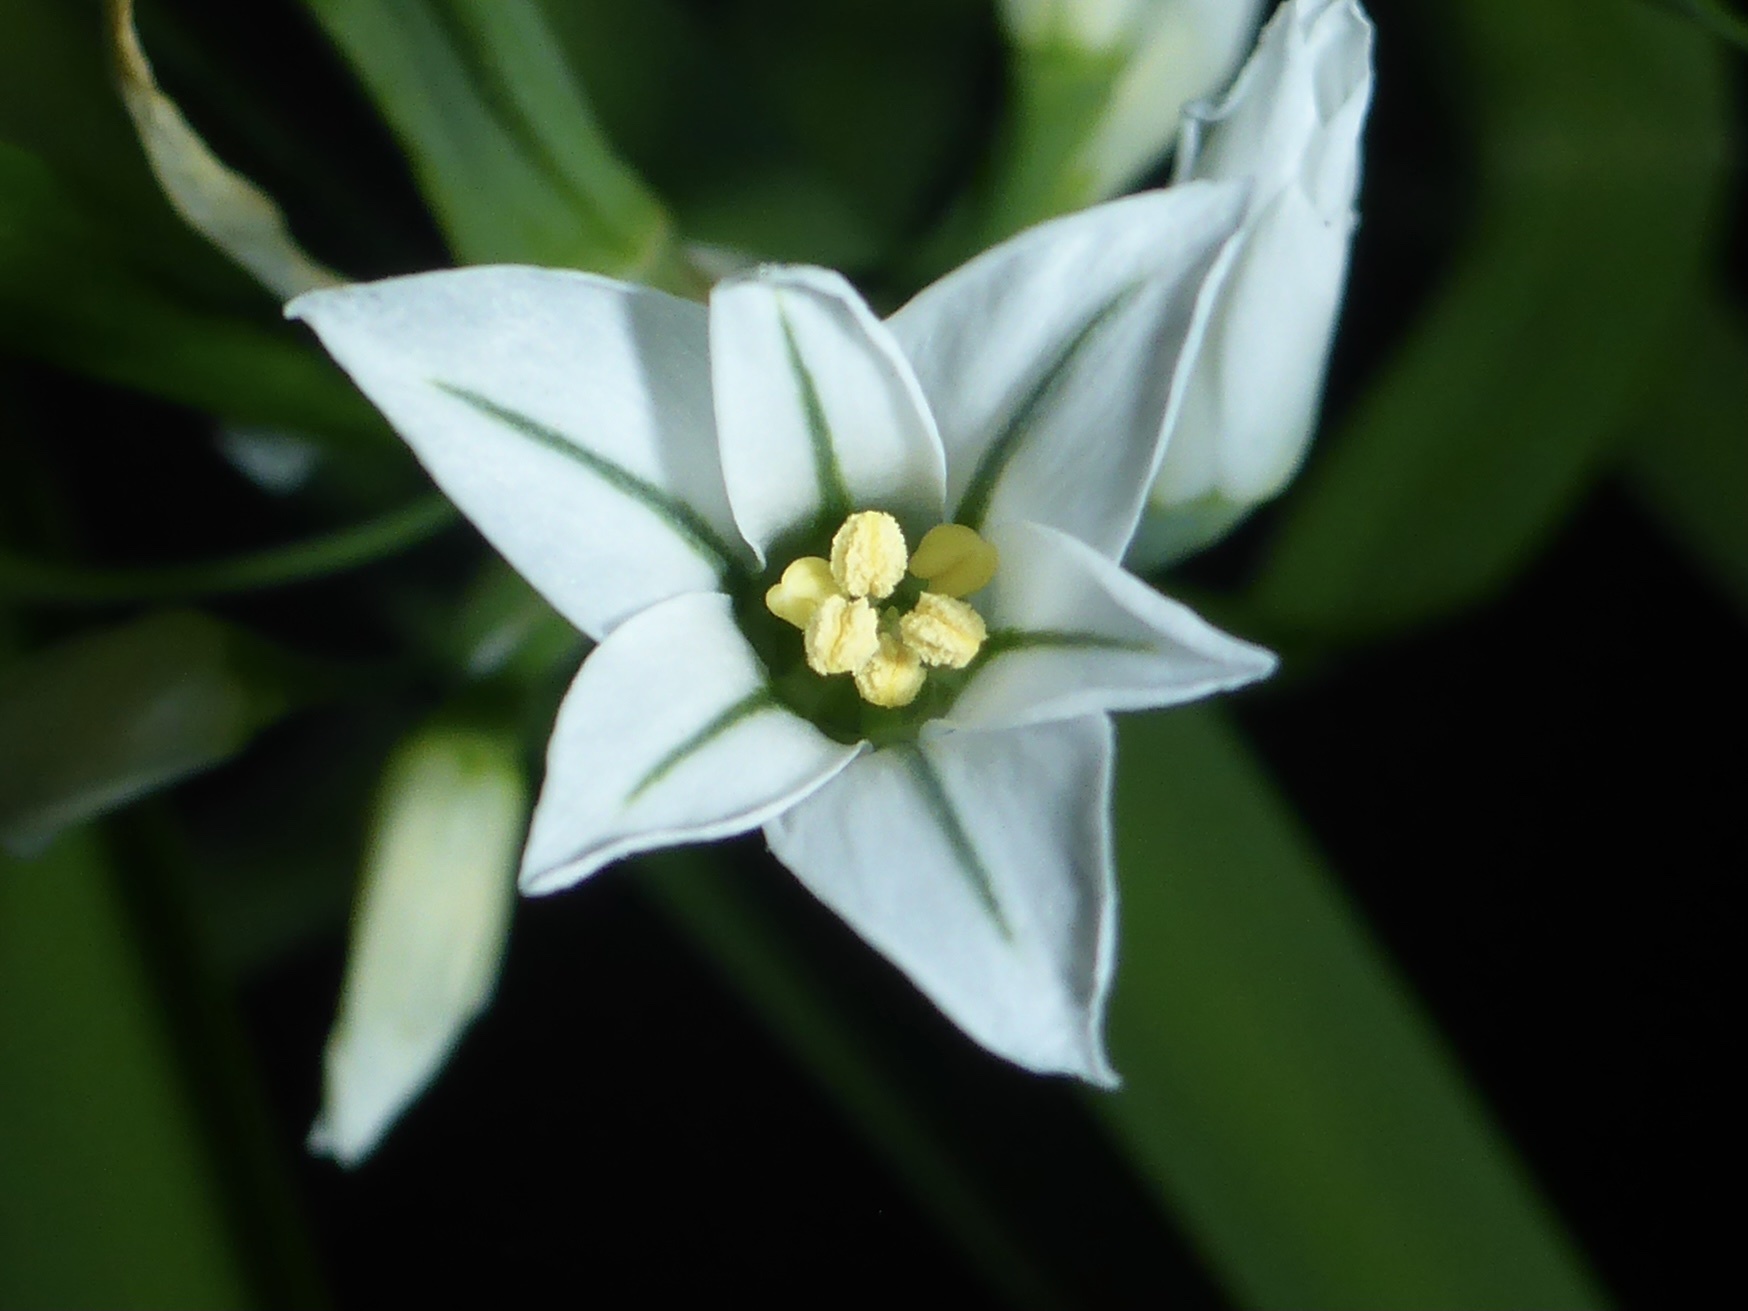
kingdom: Plantae
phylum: Tracheophyta
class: Liliopsida
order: Asparagales
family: Amaryllidaceae
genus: Allium
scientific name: Allium triquetrum
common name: Three-cornered garlic
